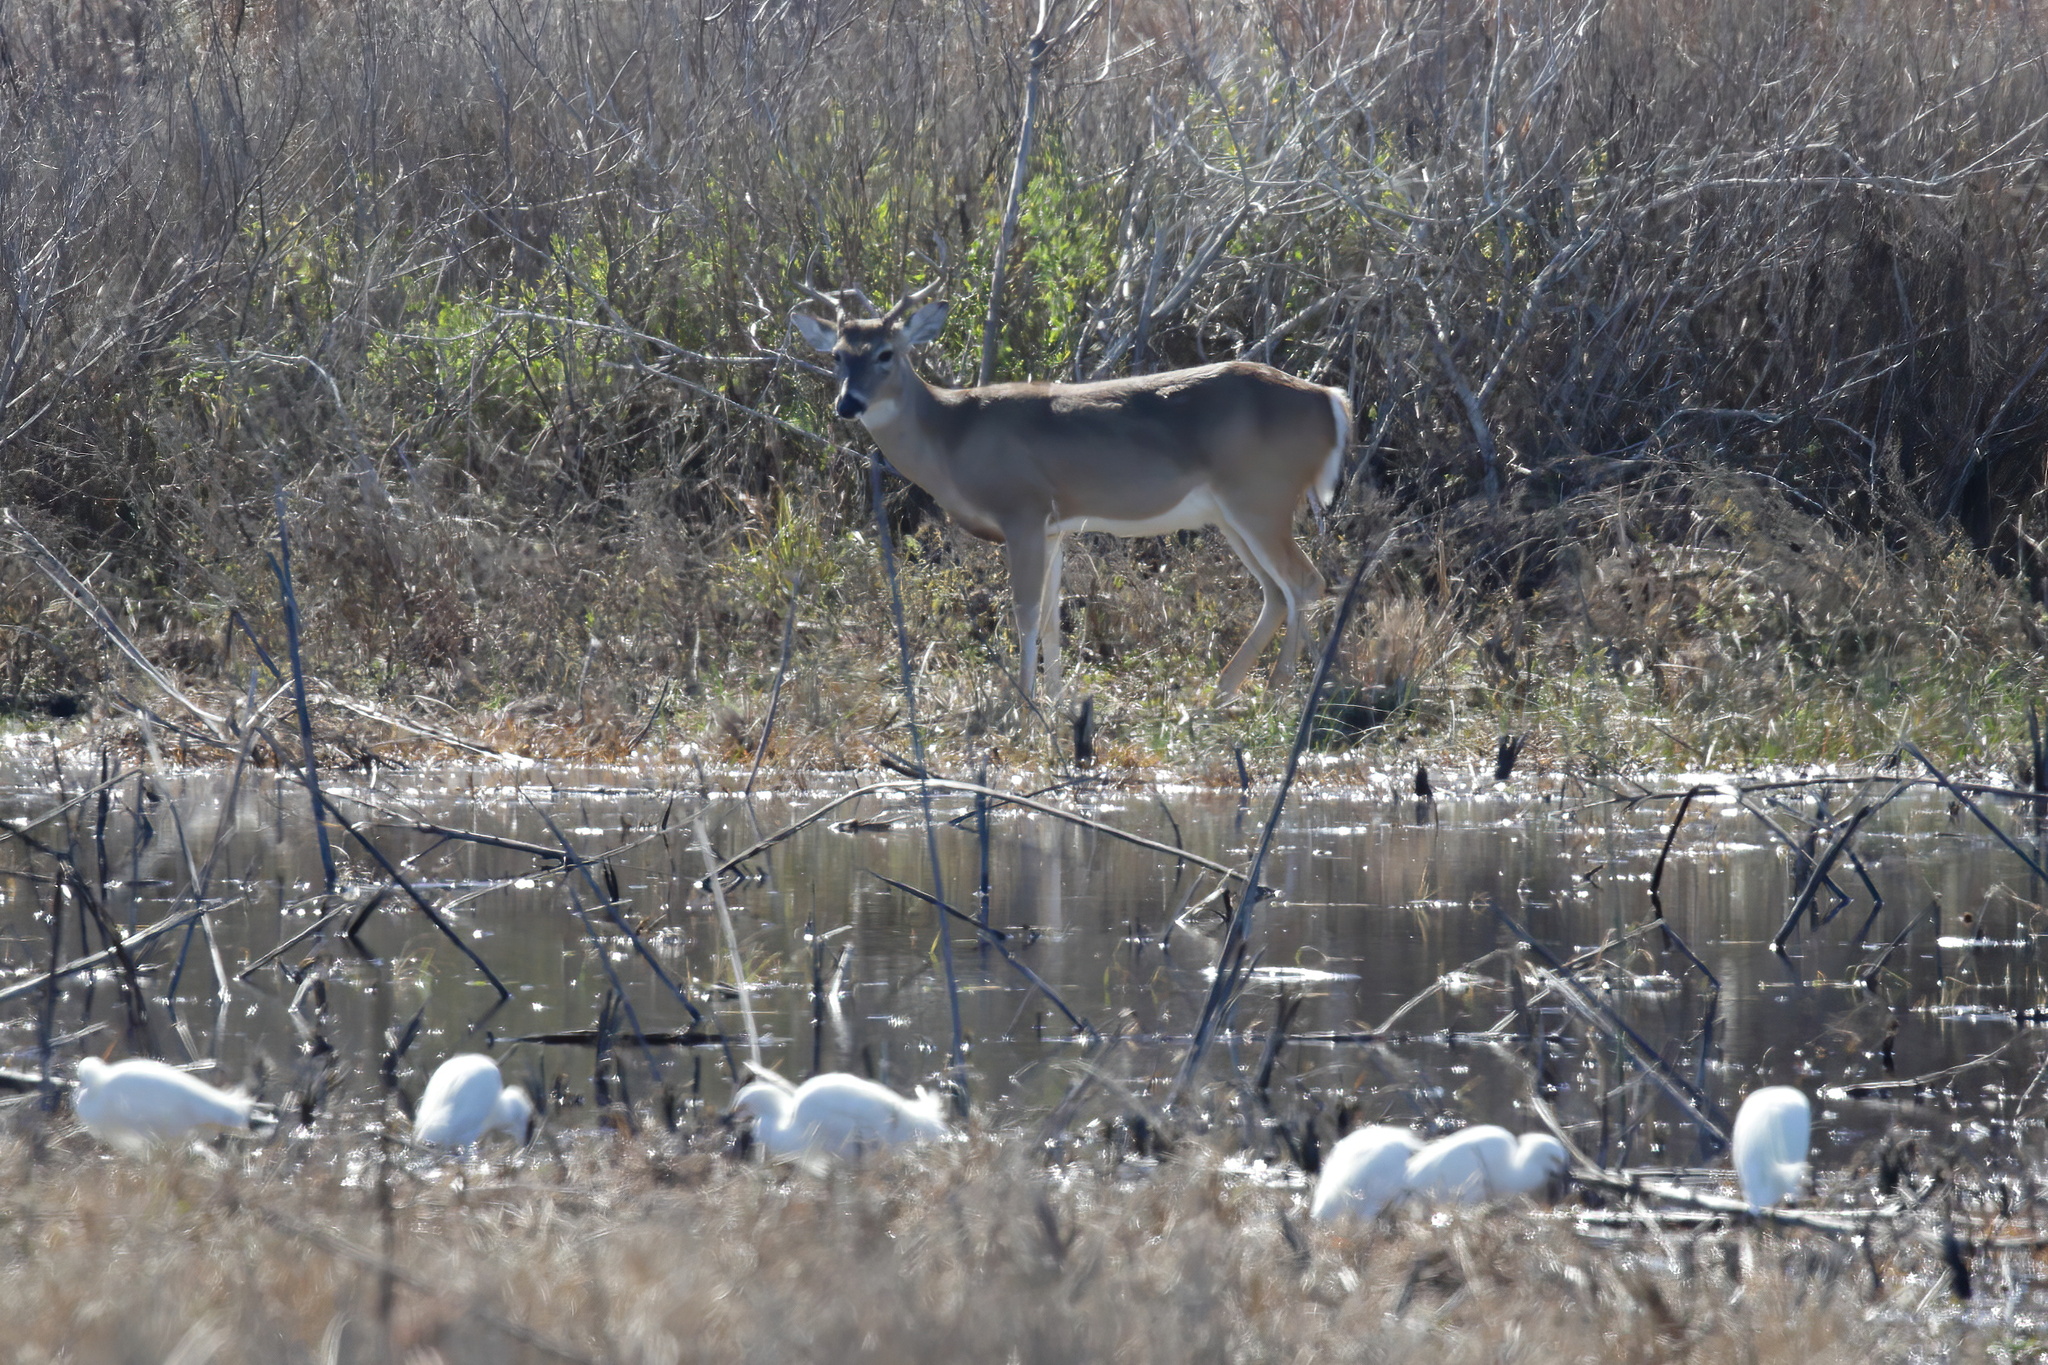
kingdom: Animalia
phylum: Chordata
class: Mammalia
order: Artiodactyla
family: Cervidae
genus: Odocoileus
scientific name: Odocoileus virginianus
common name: White-tailed deer
